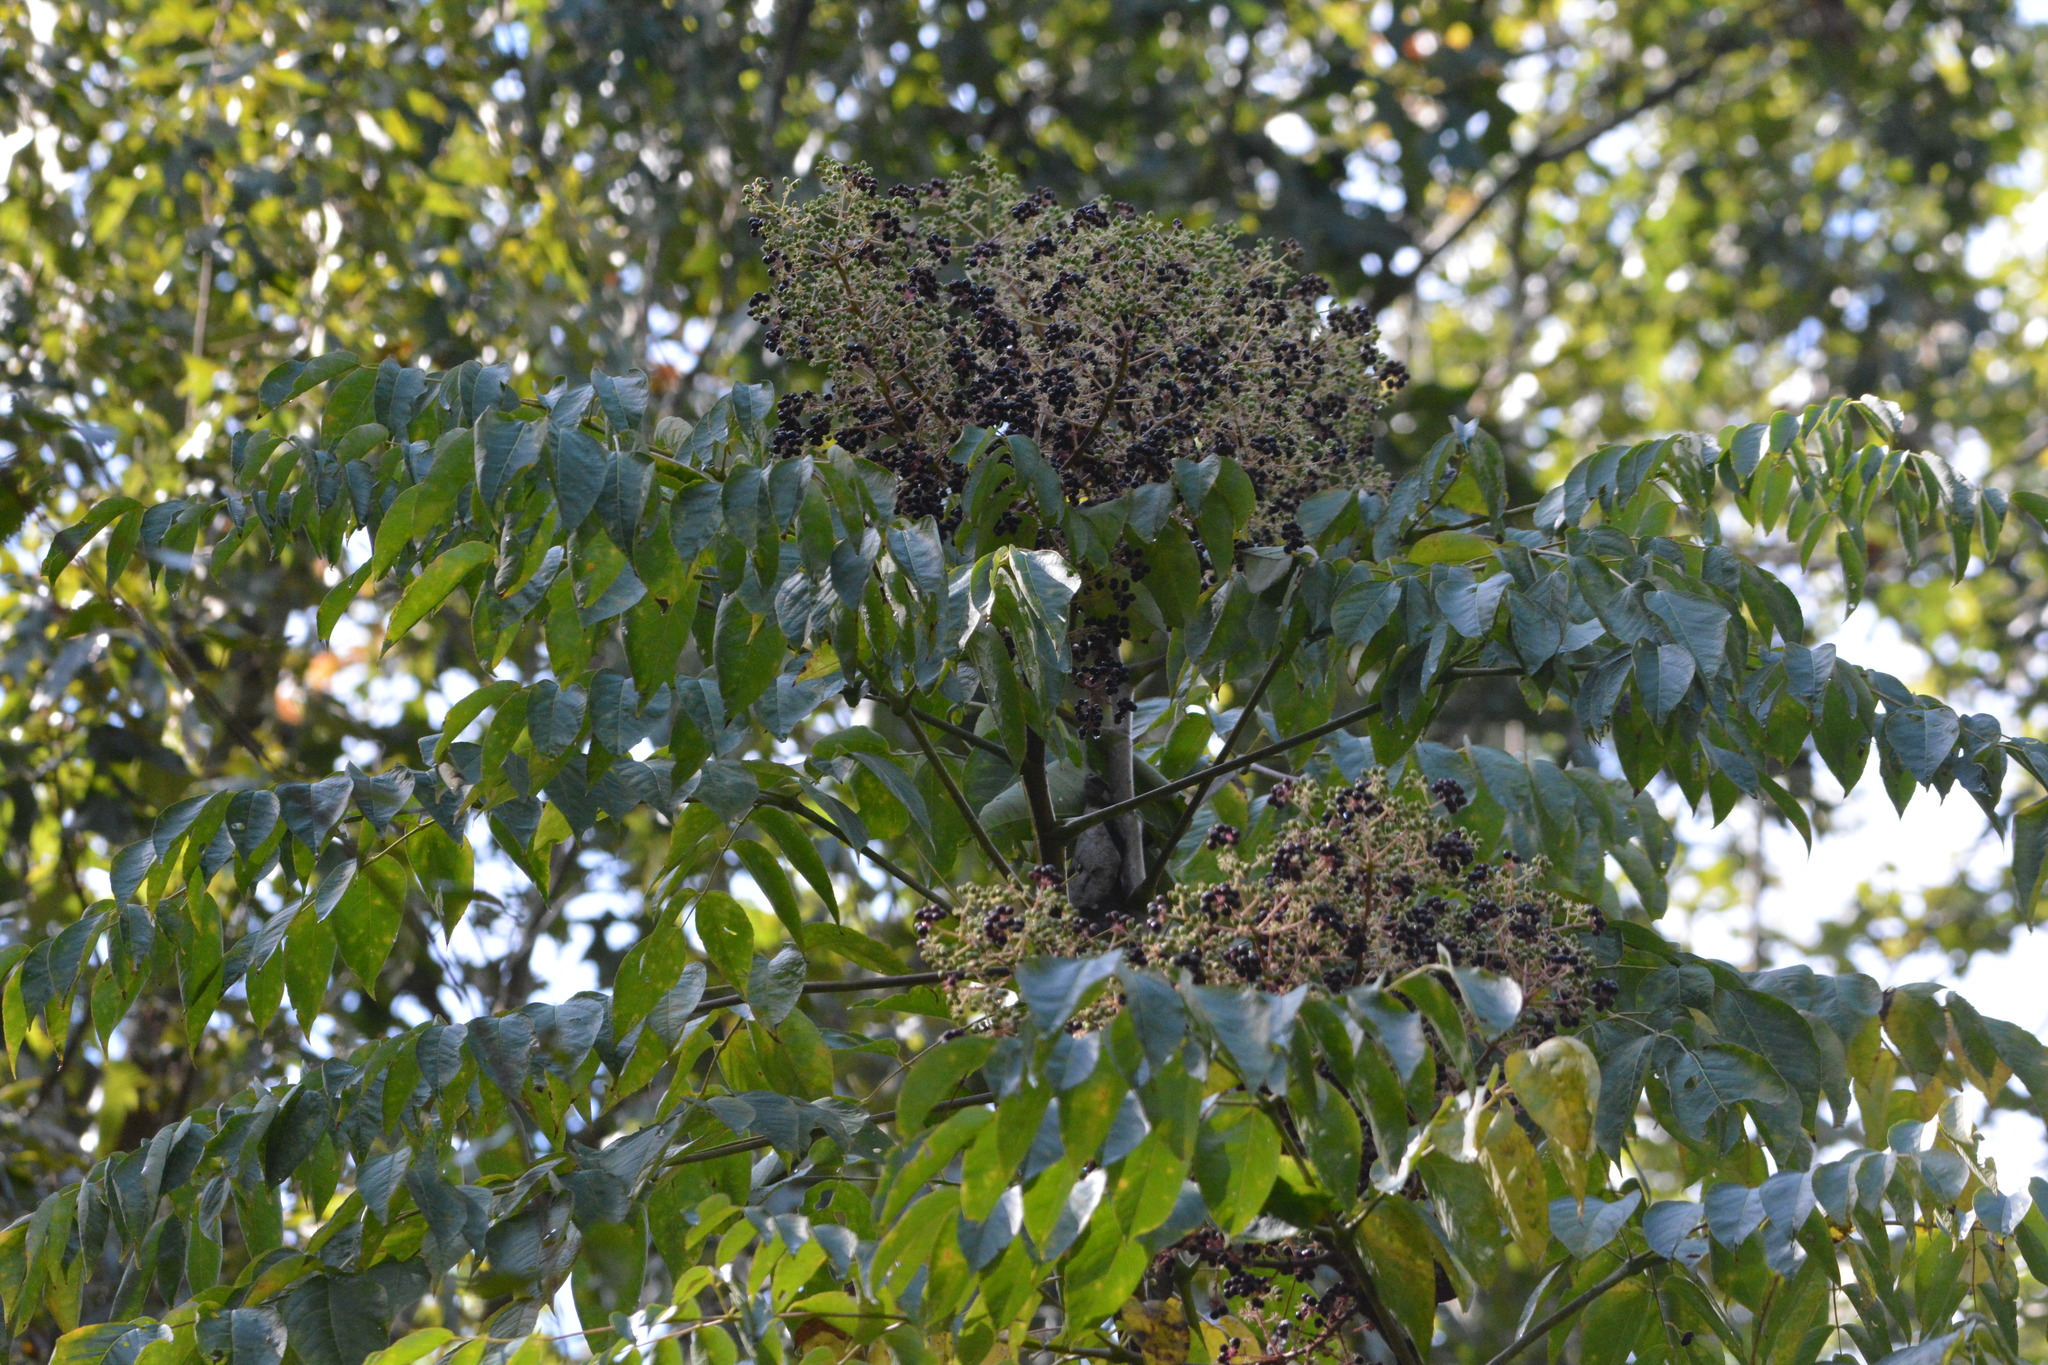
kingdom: Plantae
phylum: Tracheophyta
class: Magnoliopsida
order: Apiales
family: Araliaceae
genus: Aralia
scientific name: Aralia spinosa
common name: Hercules'-club
